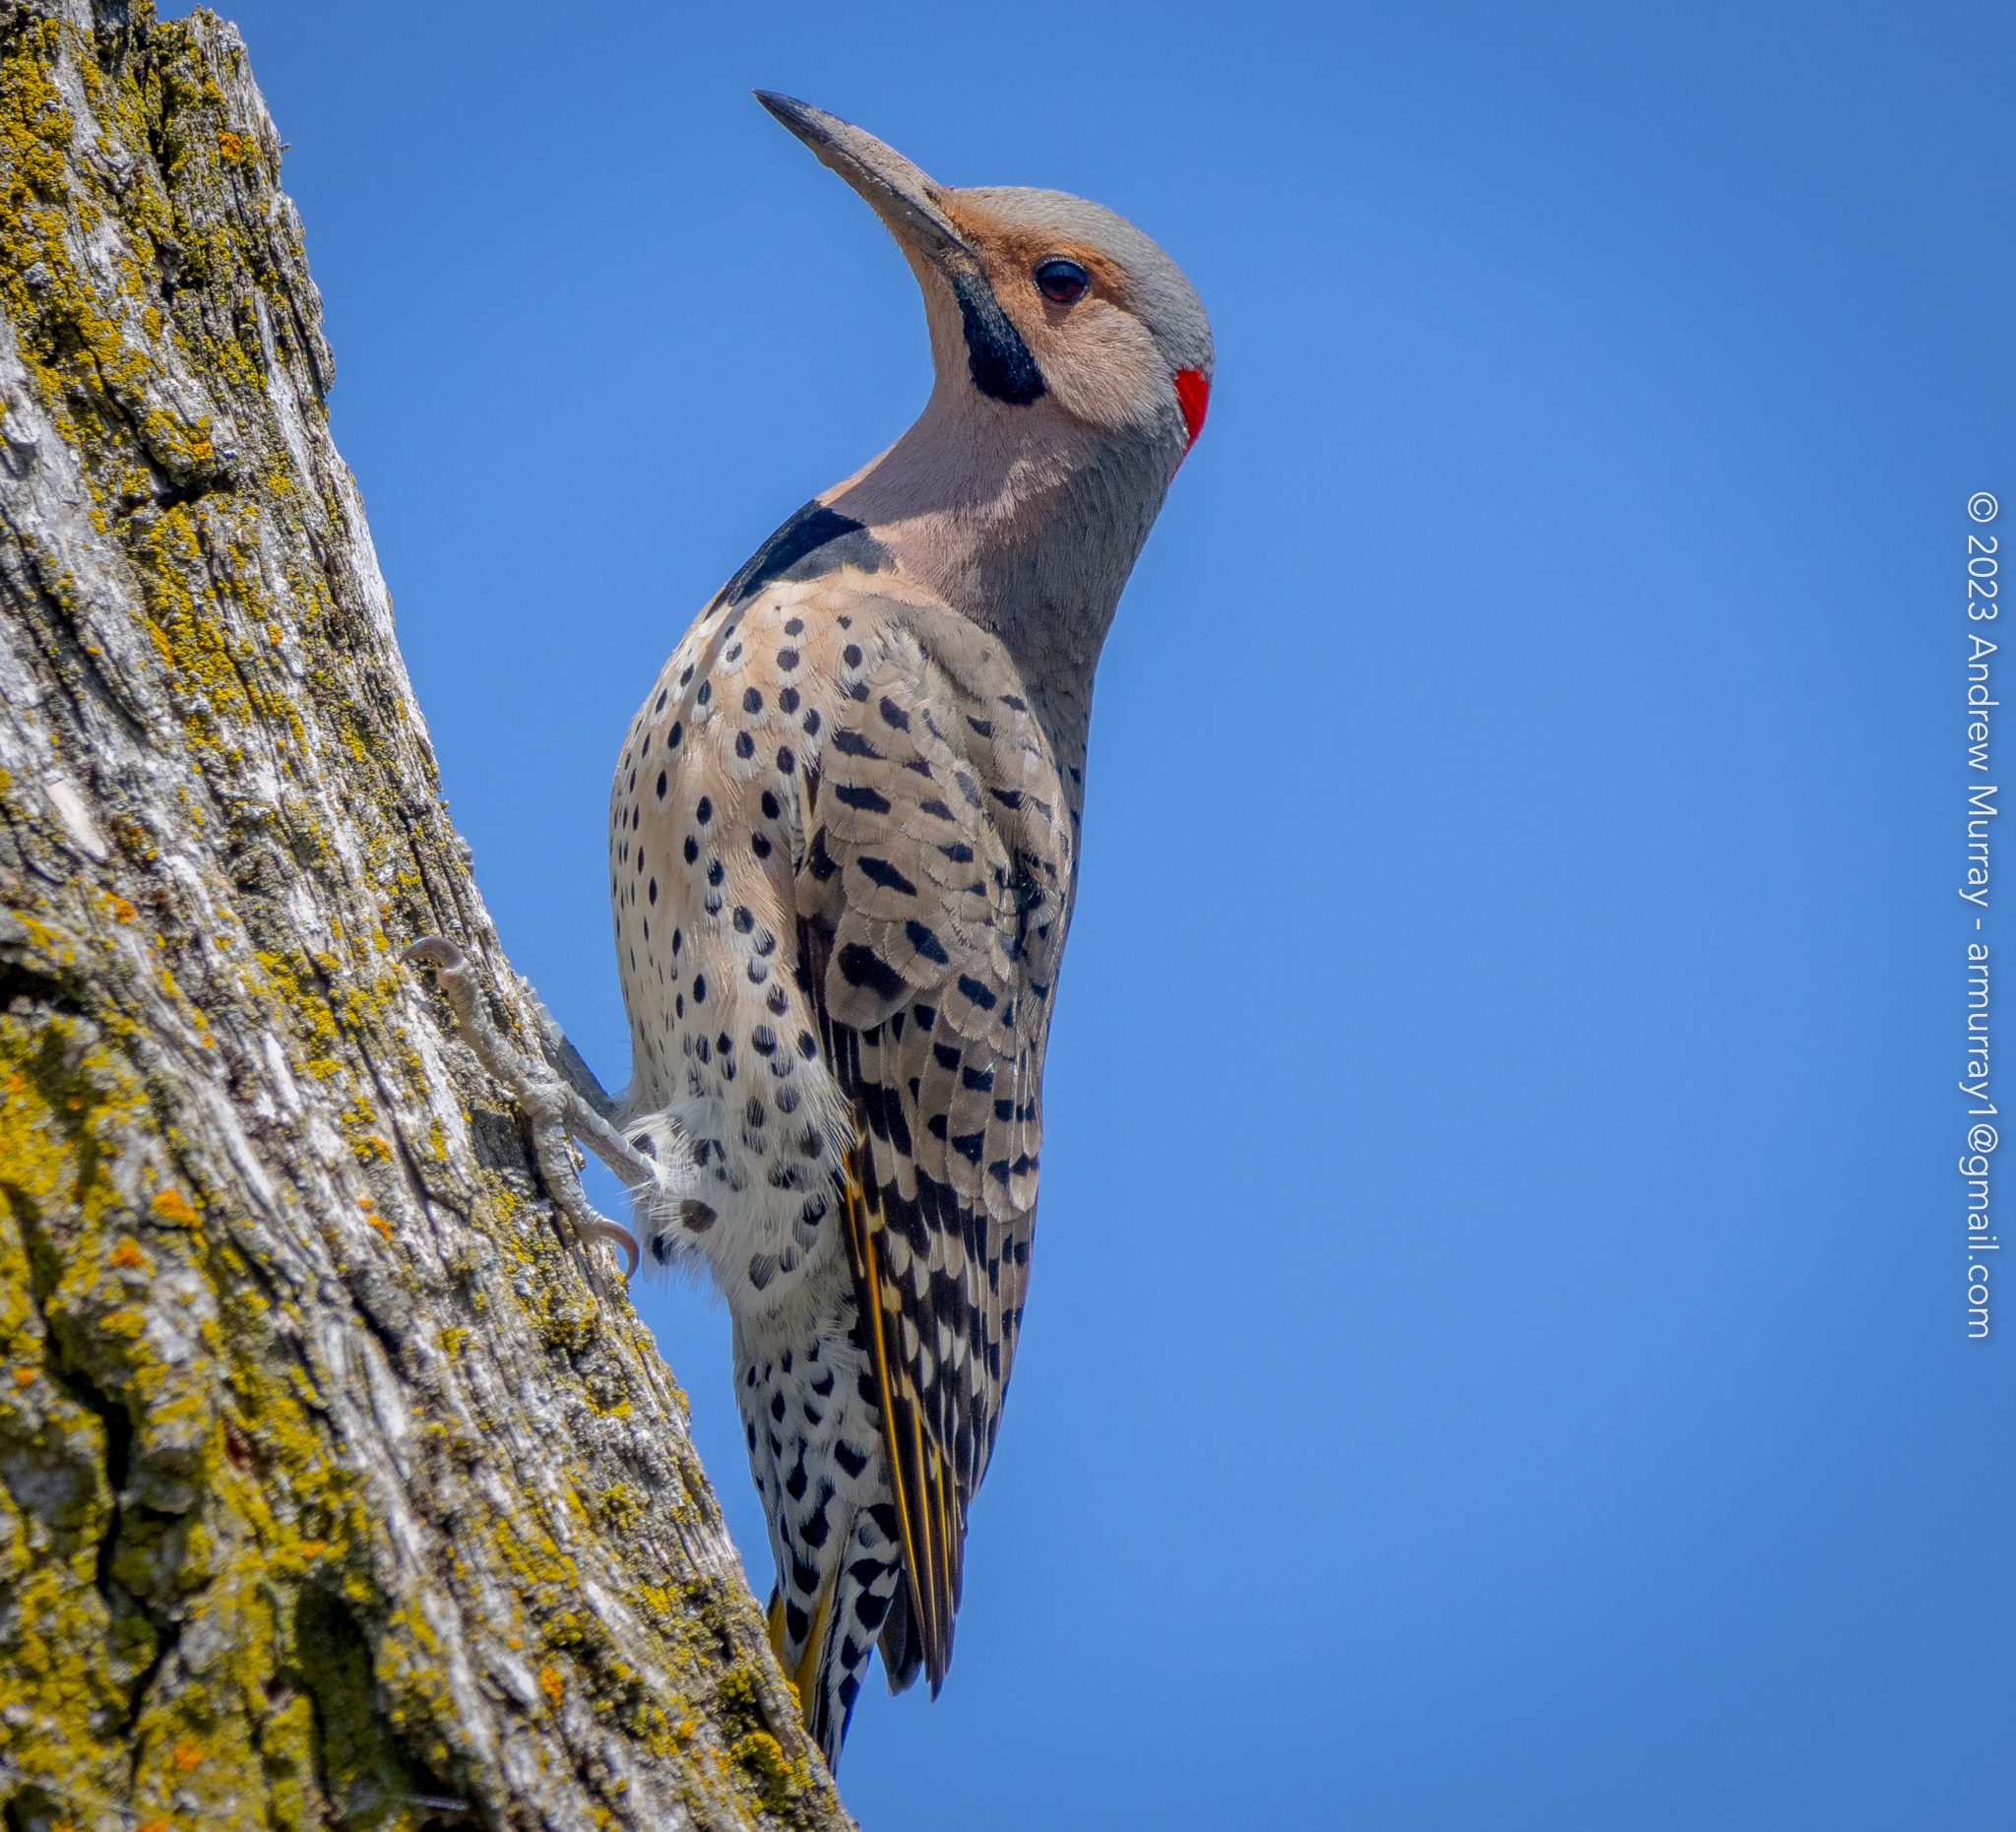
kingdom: Animalia
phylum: Chordata
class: Aves
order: Piciformes
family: Picidae
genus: Colaptes
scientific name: Colaptes auratus
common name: Northern flicker
